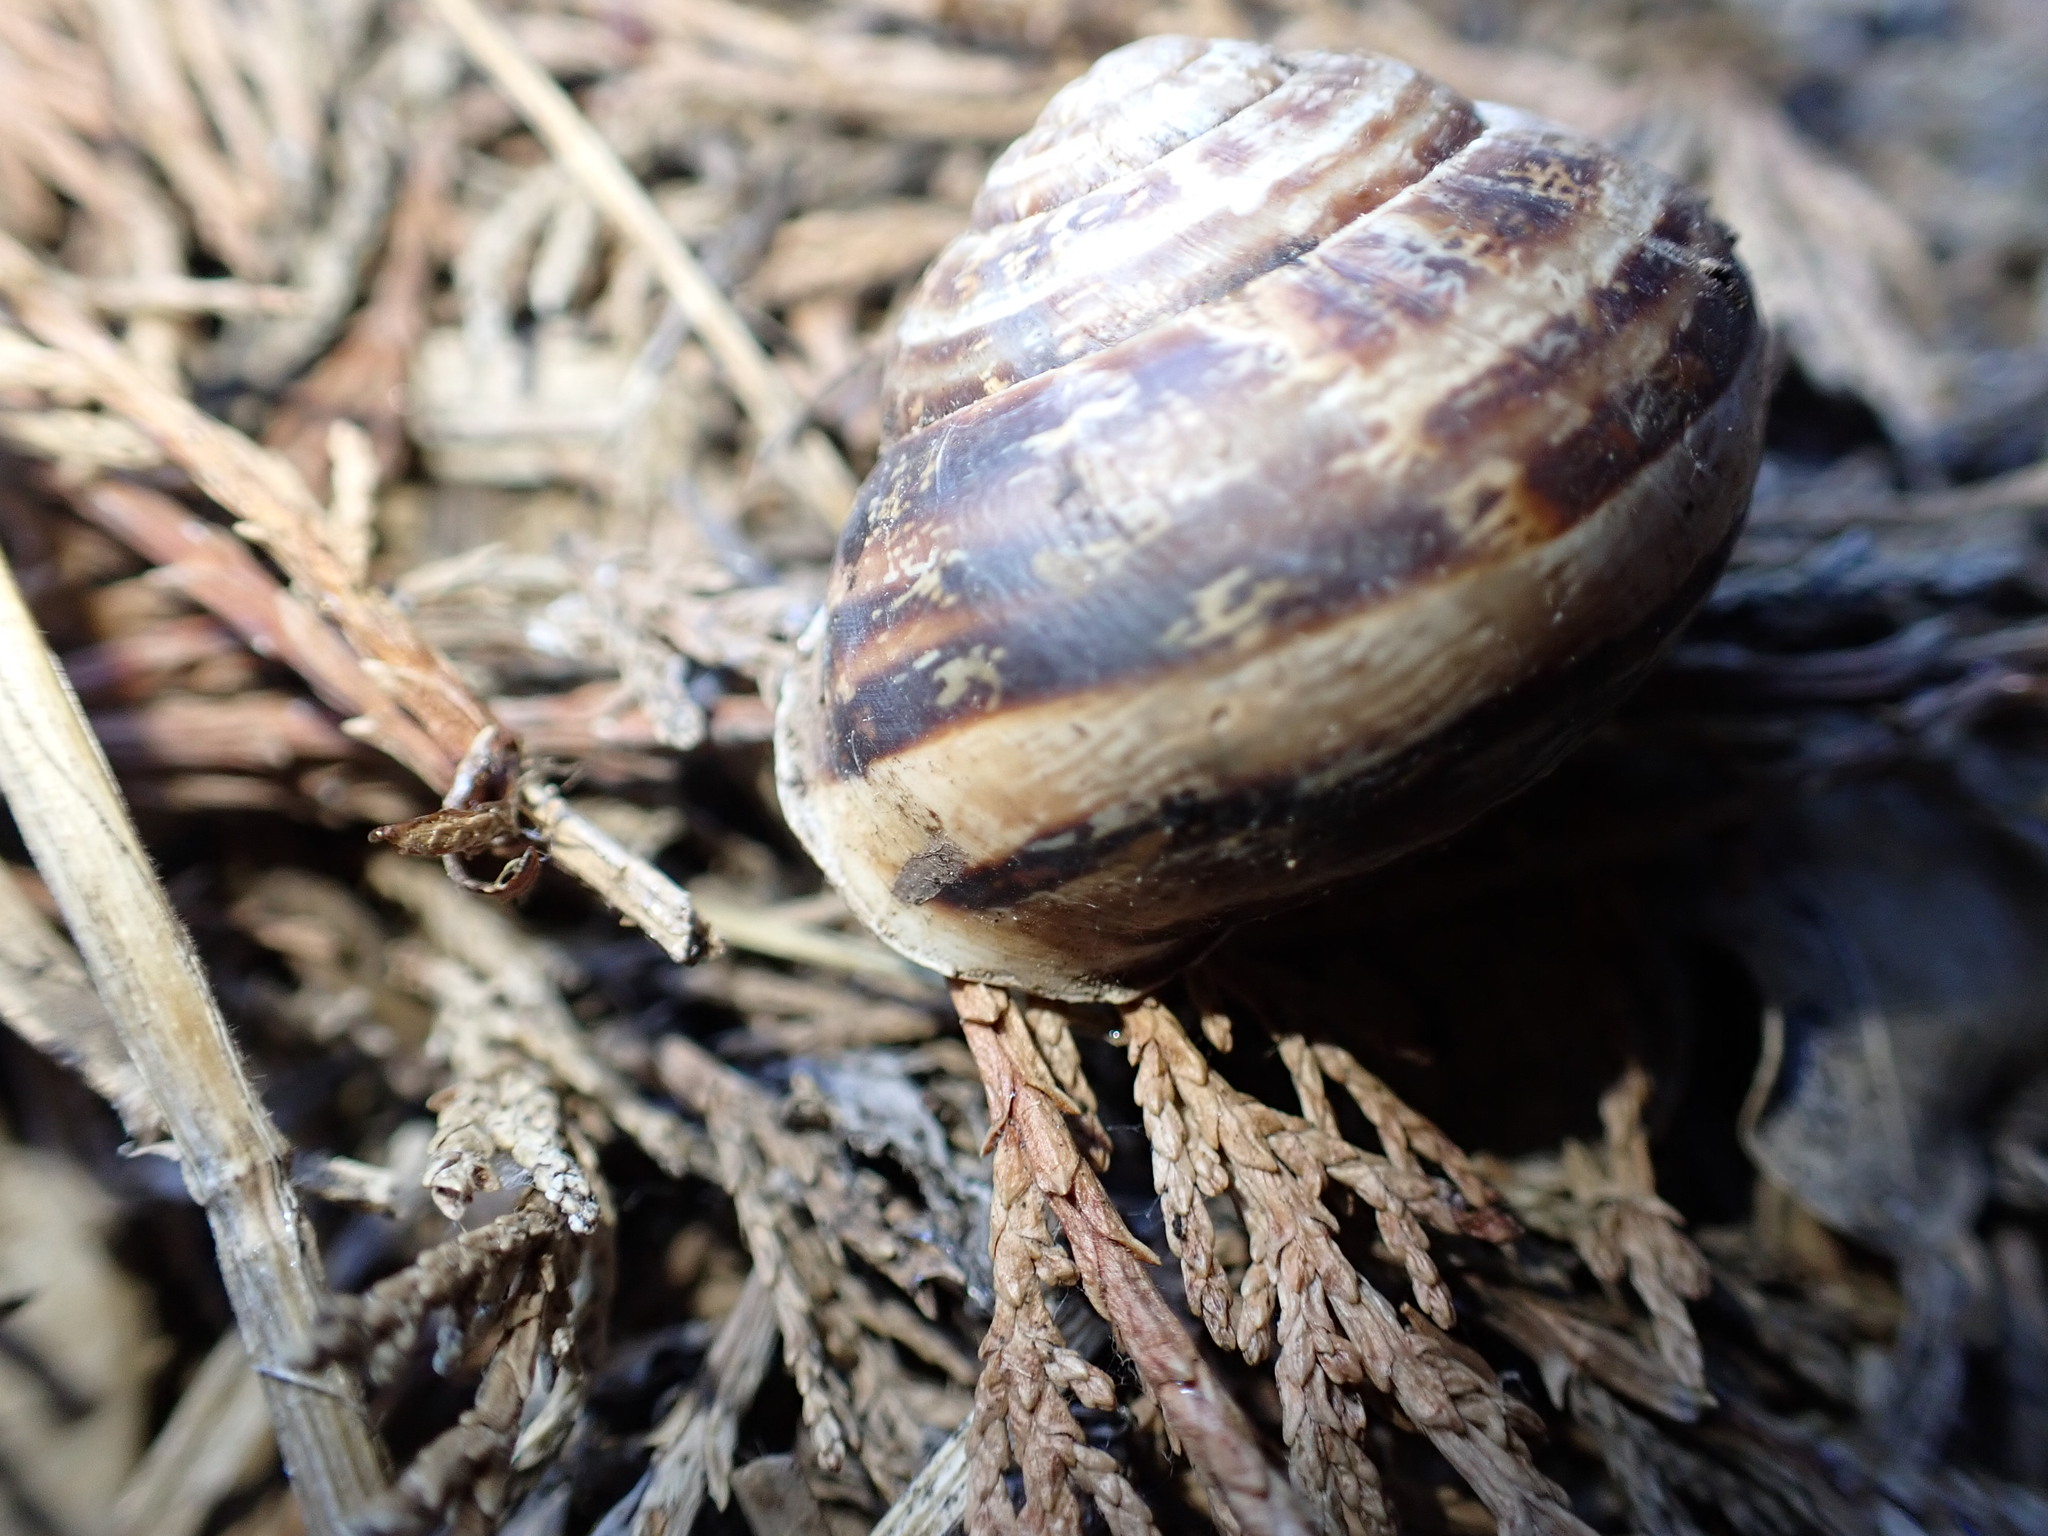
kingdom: Animalia
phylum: Mollusca
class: Gastropoda
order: Stylommatophora
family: Helicidae
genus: Eobania
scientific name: Eobania vermiculata
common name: Chocolateband snail
